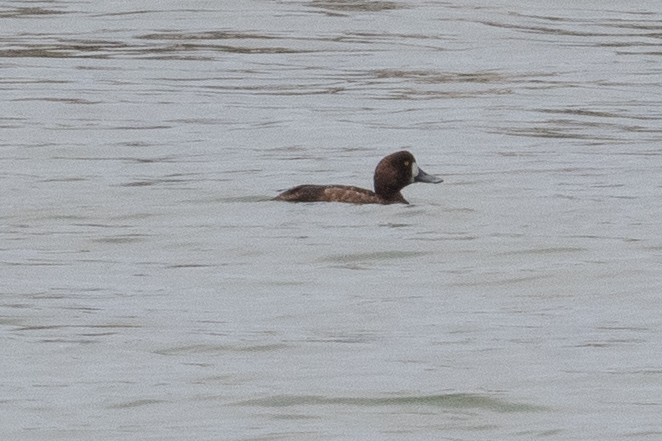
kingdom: Animalia
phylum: Chordata
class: Aves
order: Anseriformes
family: Anatidae
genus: Aythya
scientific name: Aythya marila
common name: Greater scaup
